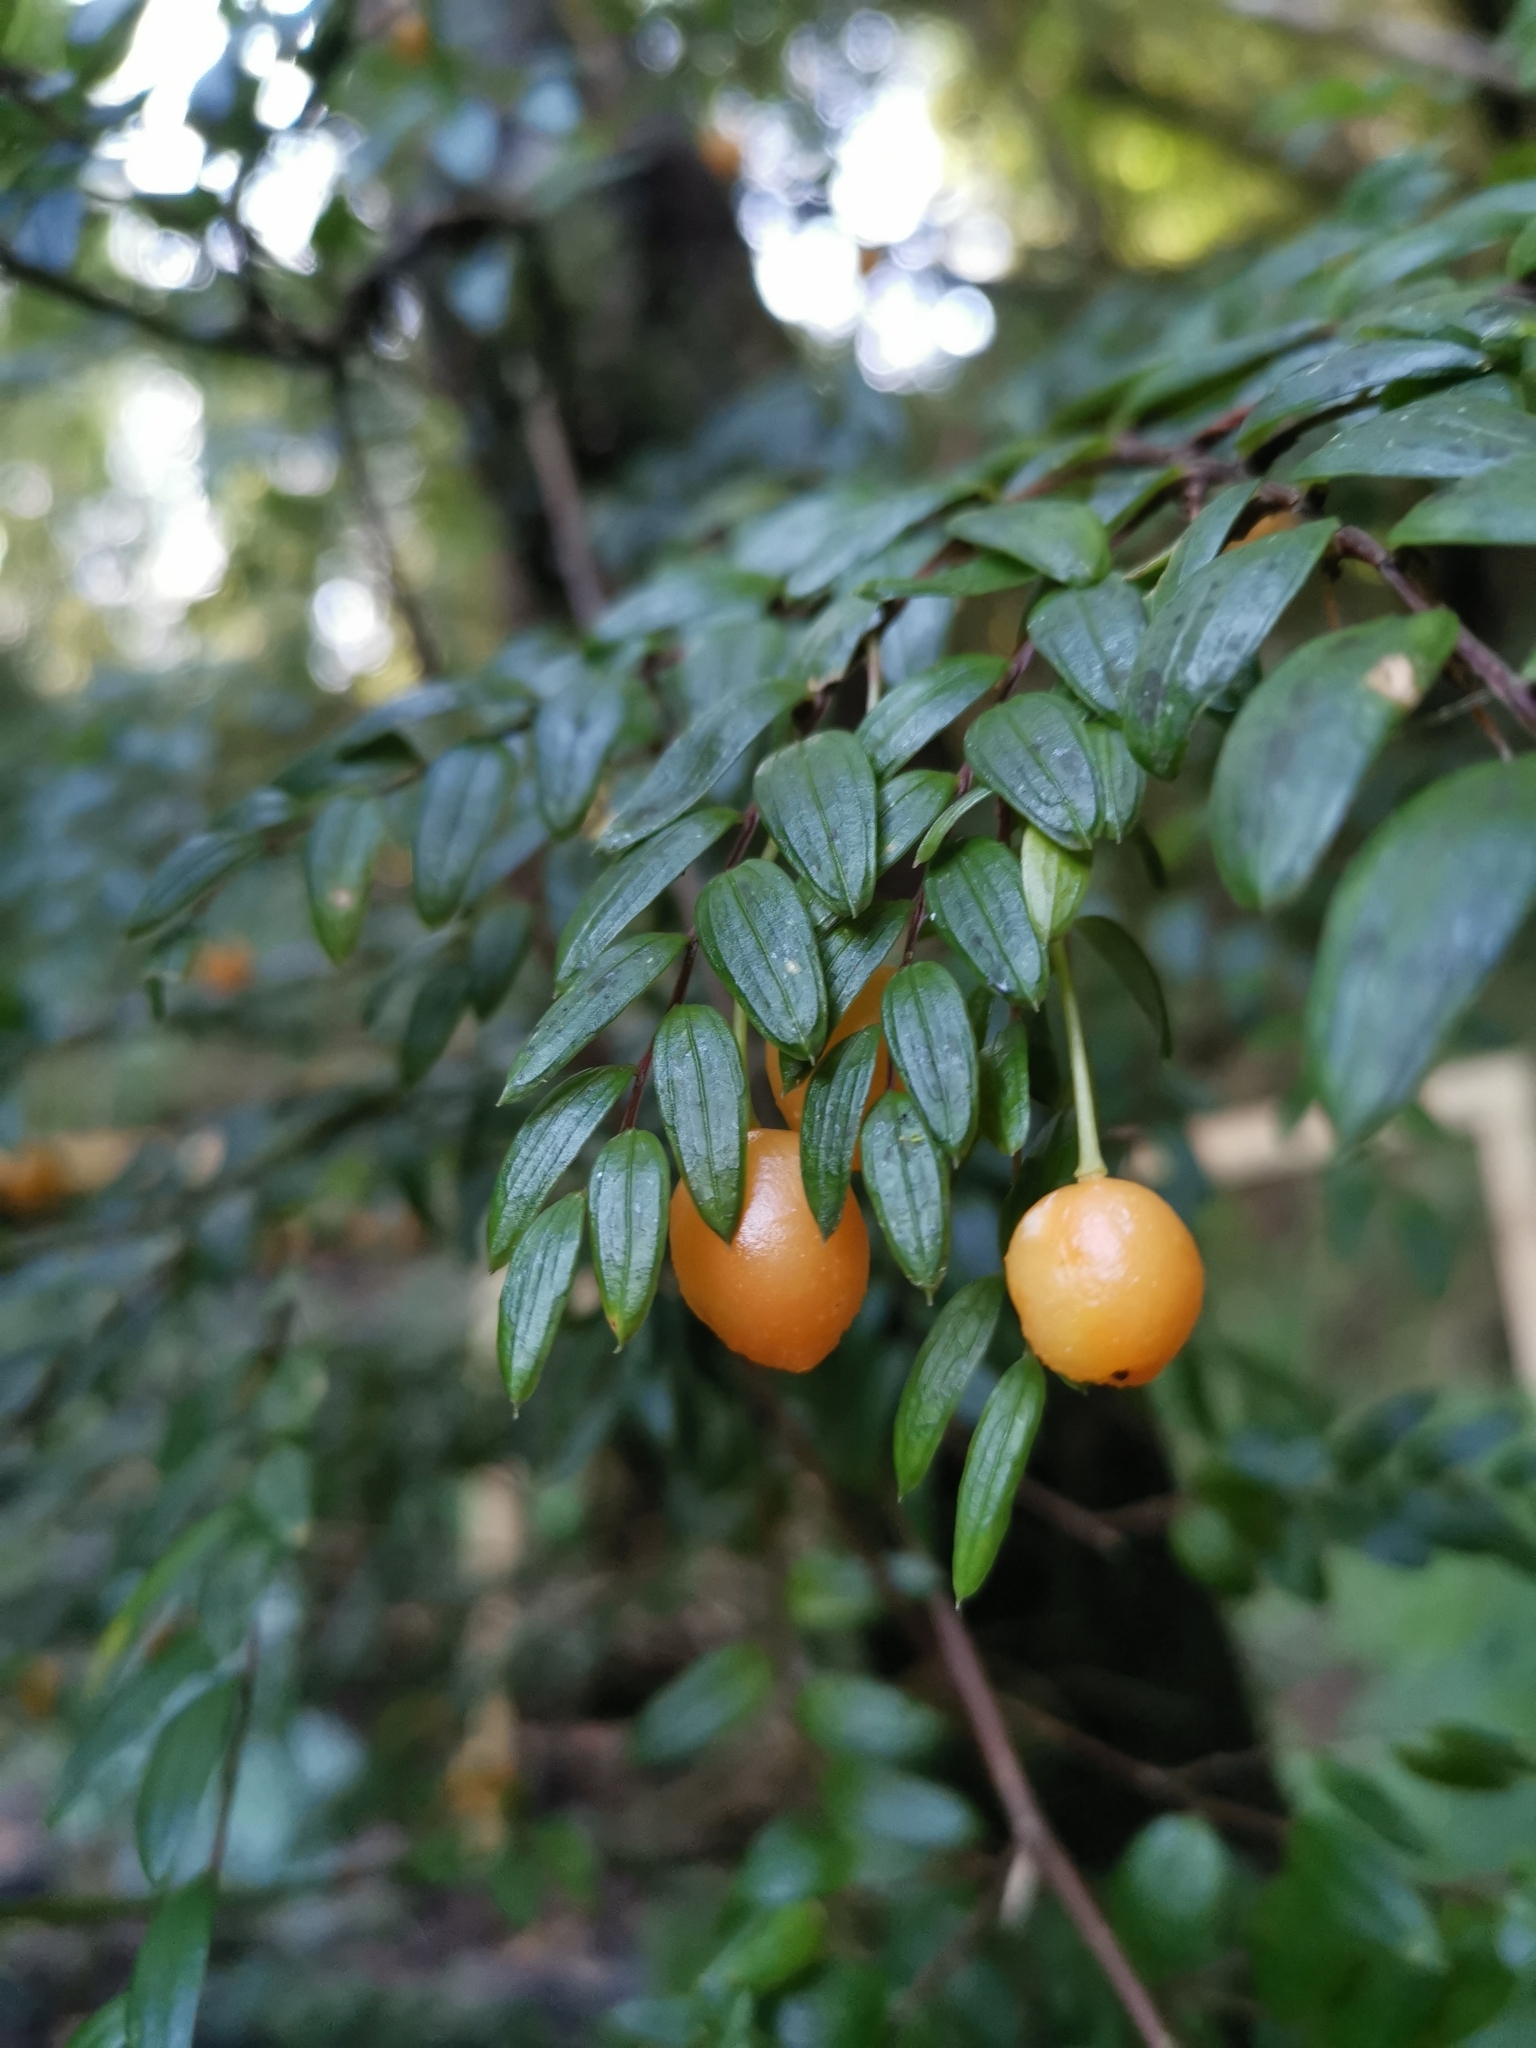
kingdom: Plantae
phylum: Tracheophyta
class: Liliopsida
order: Liliales
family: Alstroemeriaceae
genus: Luzuriaga
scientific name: Luzuriaga polyphylla
